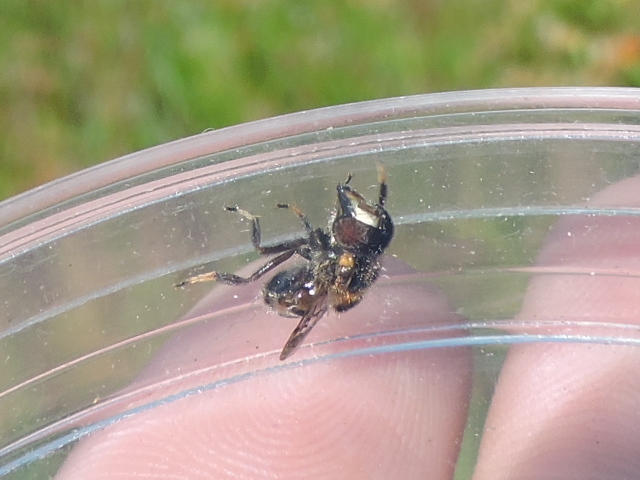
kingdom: Animalia
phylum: Arthropoda
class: Insecta
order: Diptera
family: Syrphidae
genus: Copestylum
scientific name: Copestylum tamaulipanum
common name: Syrphid fly
